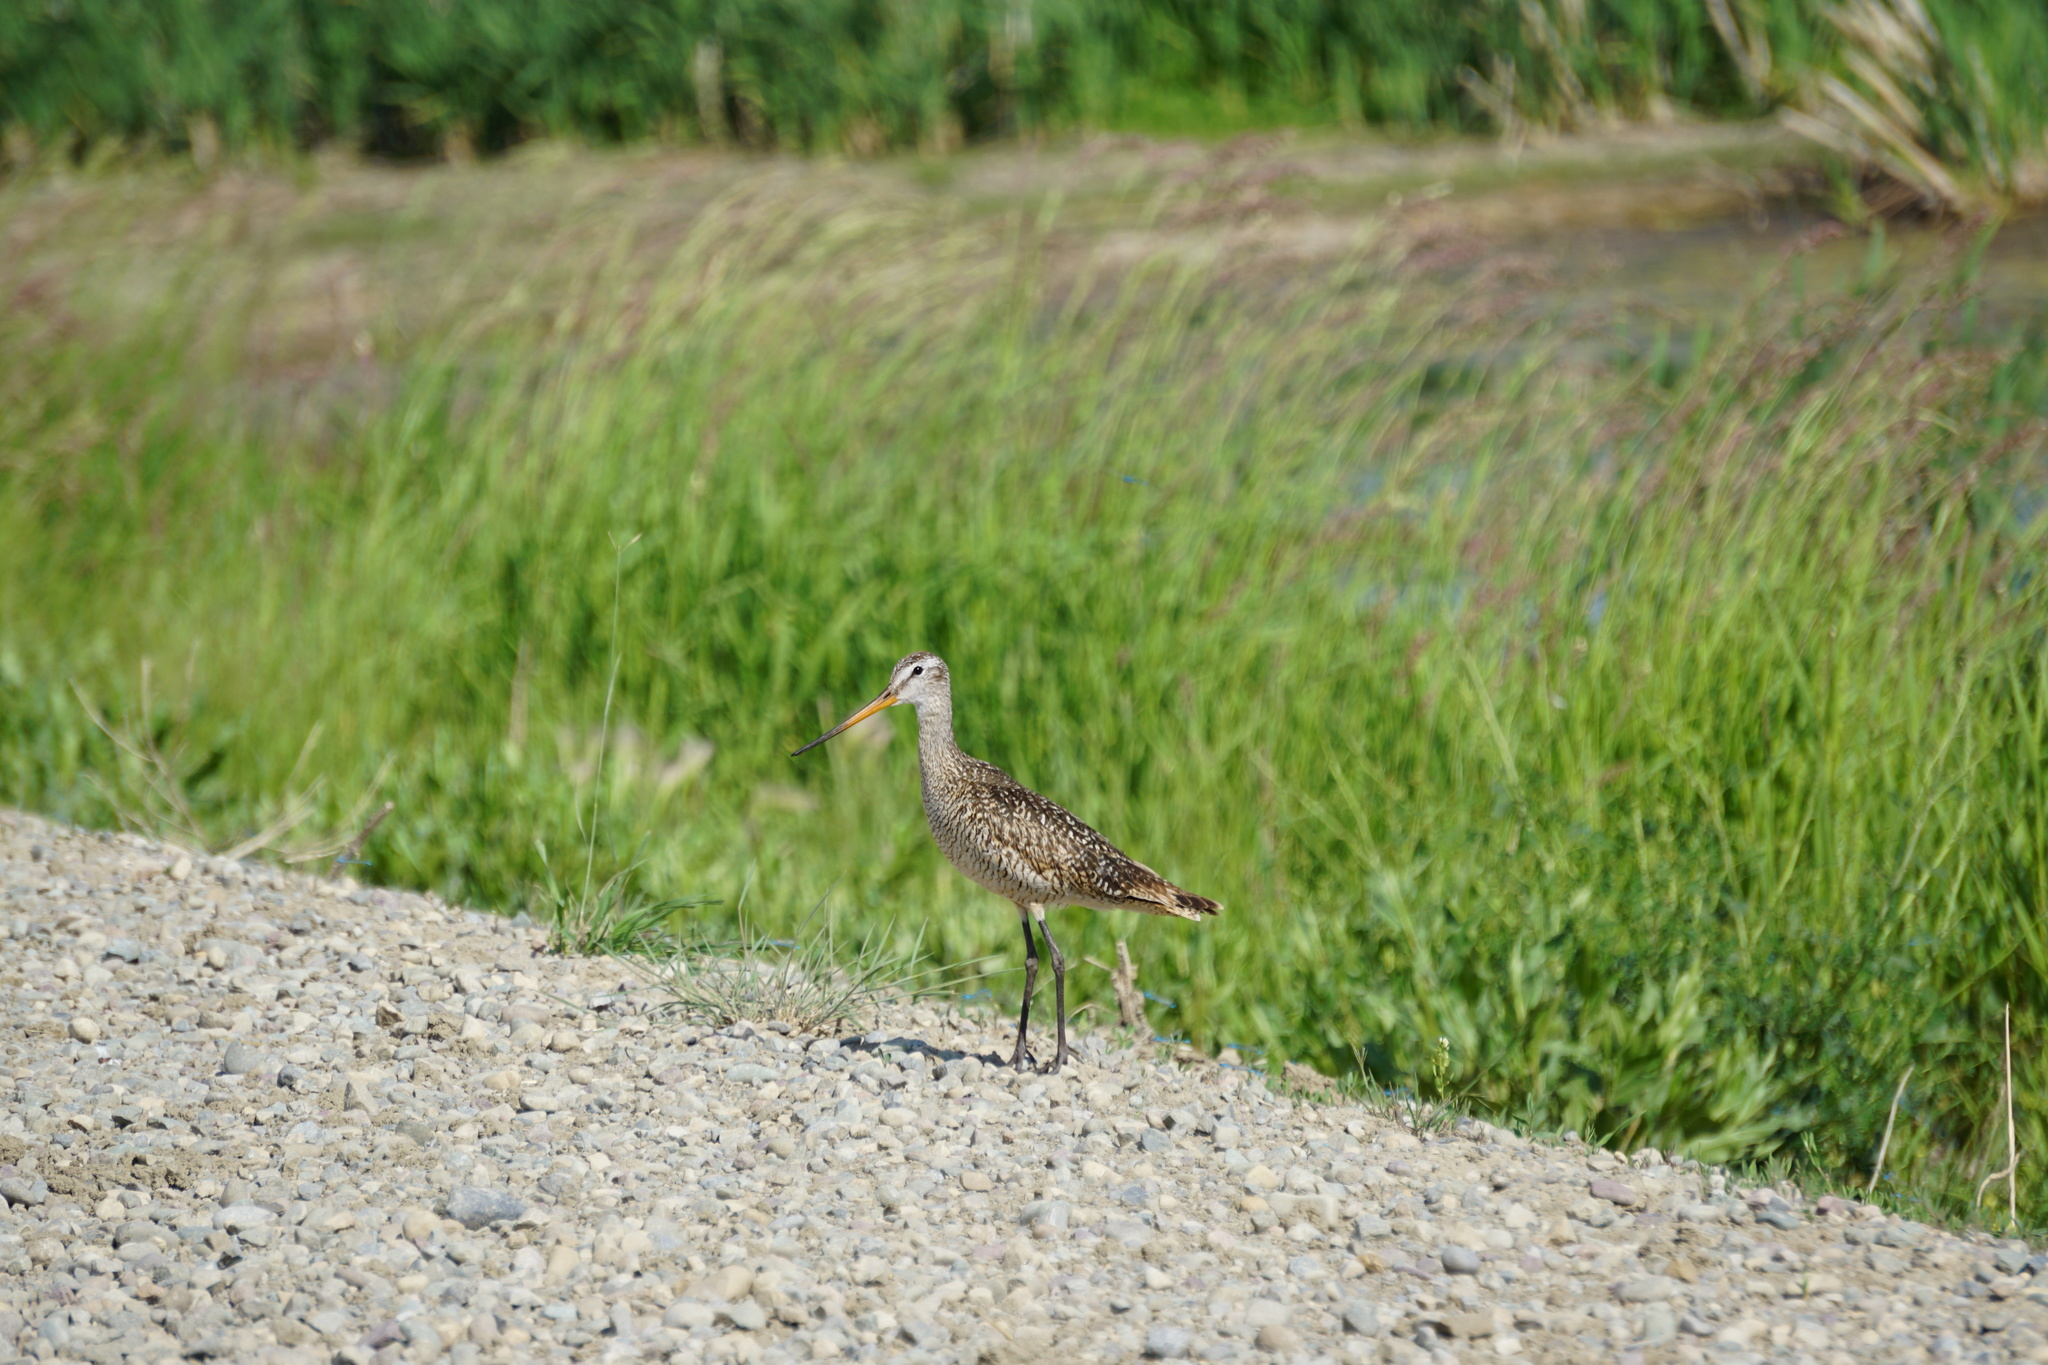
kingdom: Animalia
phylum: Chordata
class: Aves
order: Charadriiformes
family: Scolopacidae
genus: Limosa
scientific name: Limosa fedoa
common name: Marbled godwit
